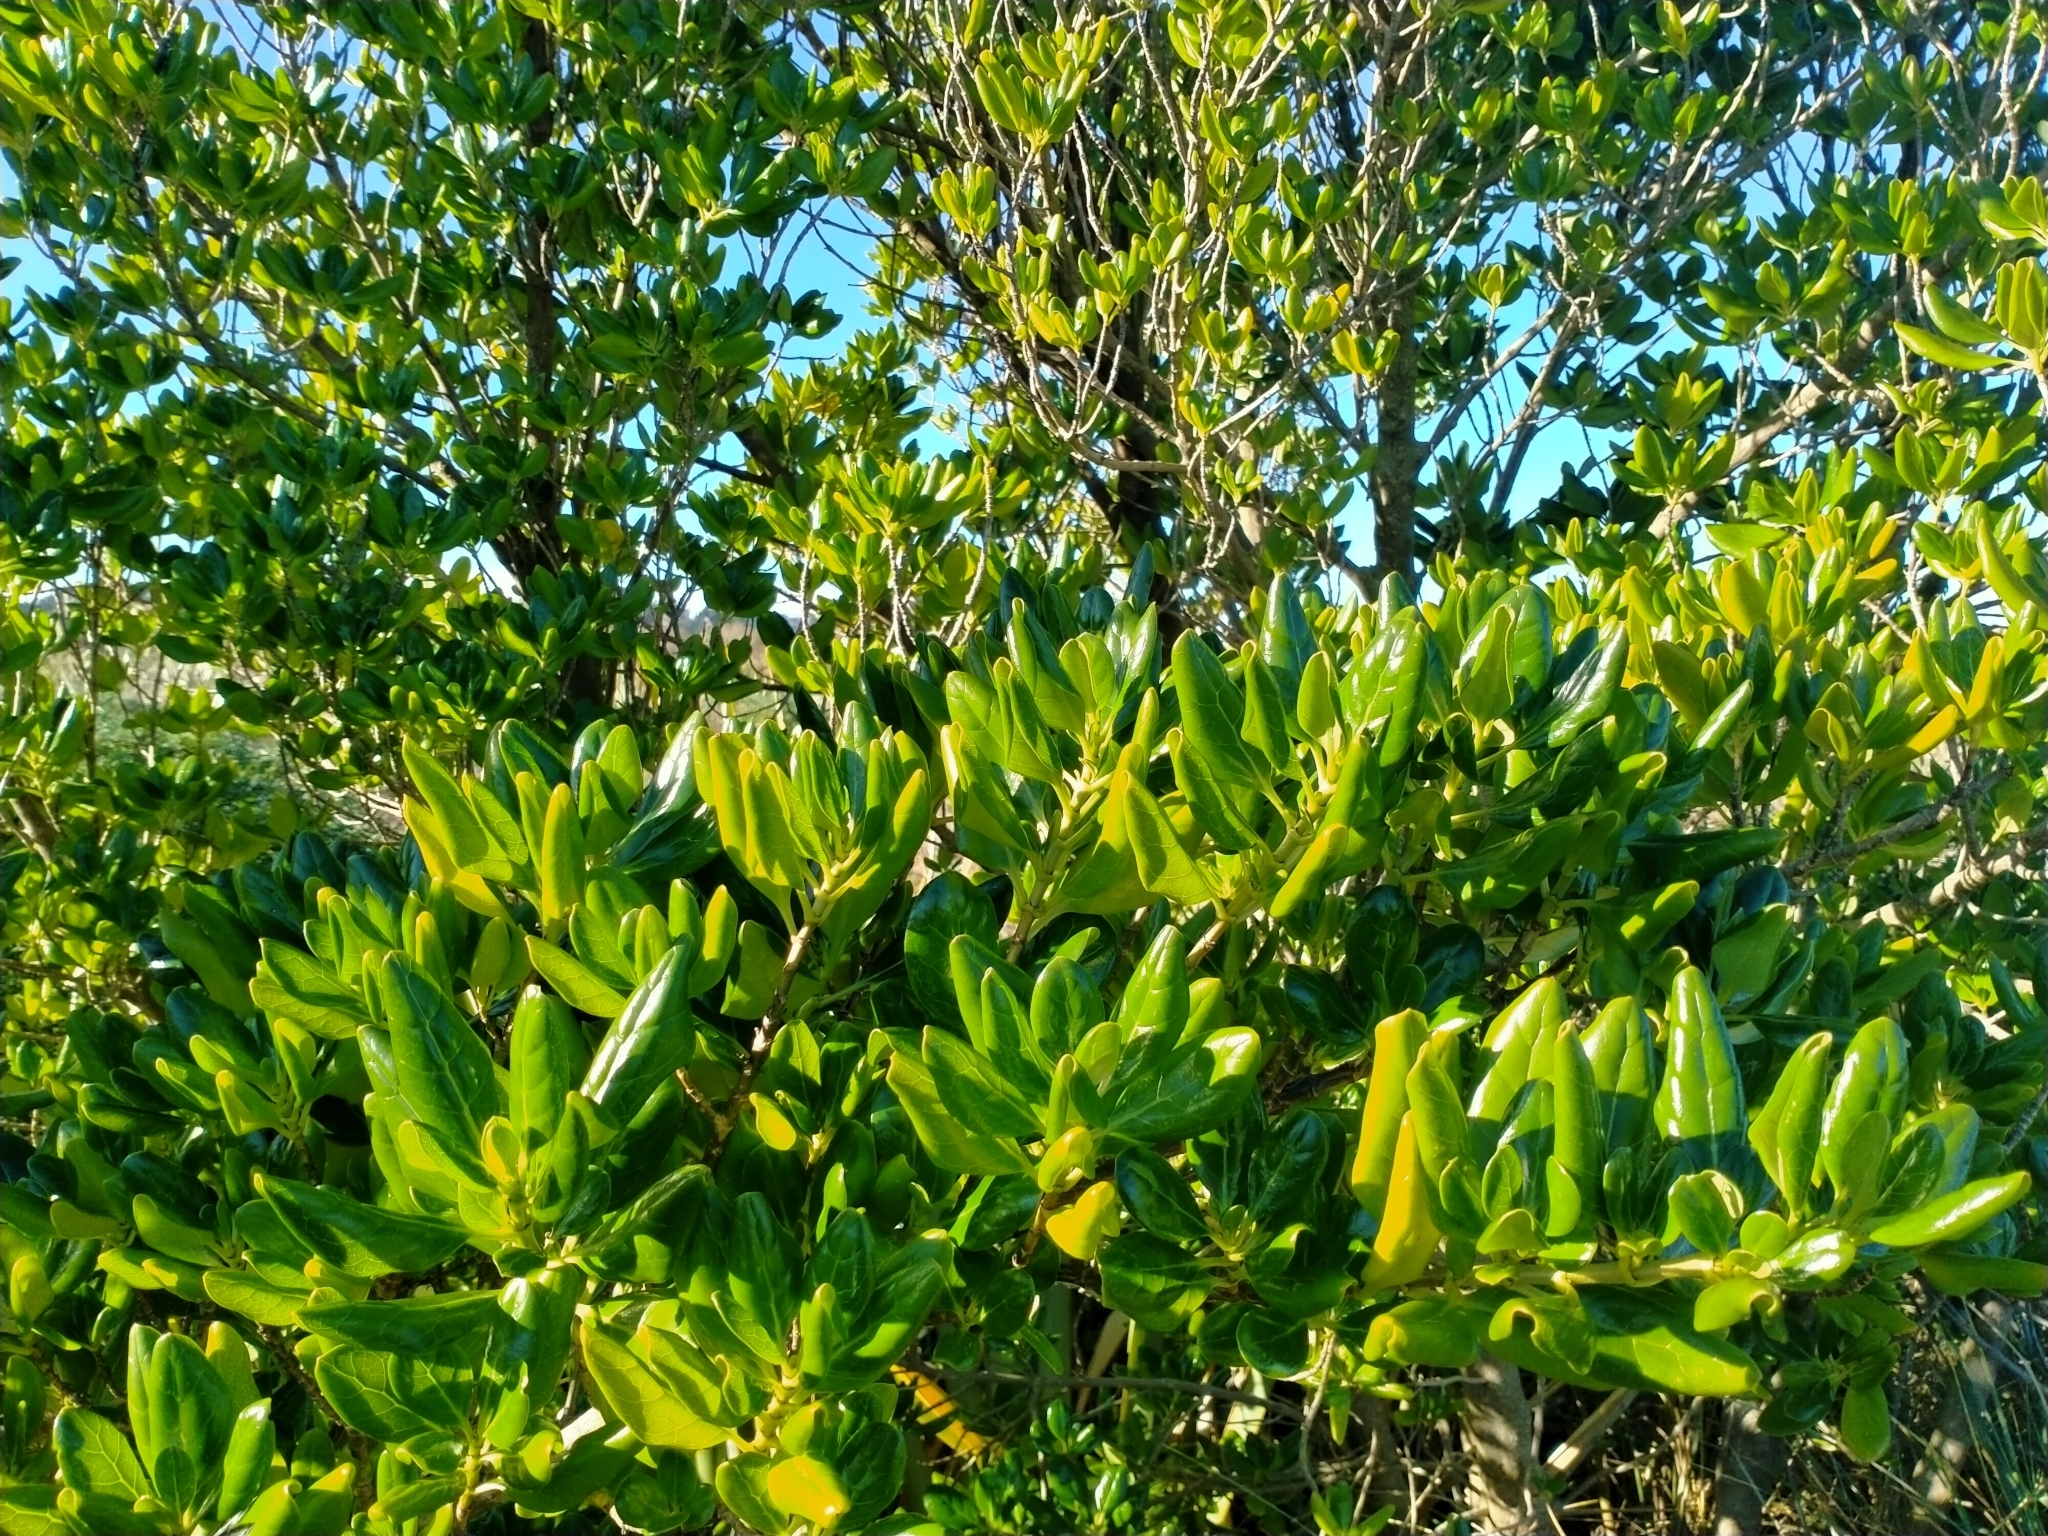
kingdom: Plantae
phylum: Tracheophyta
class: Magnoliopsida
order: Gentianales
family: Rubiaceae
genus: Coprosma
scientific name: Coprosma repens
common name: Tree bedstraw
